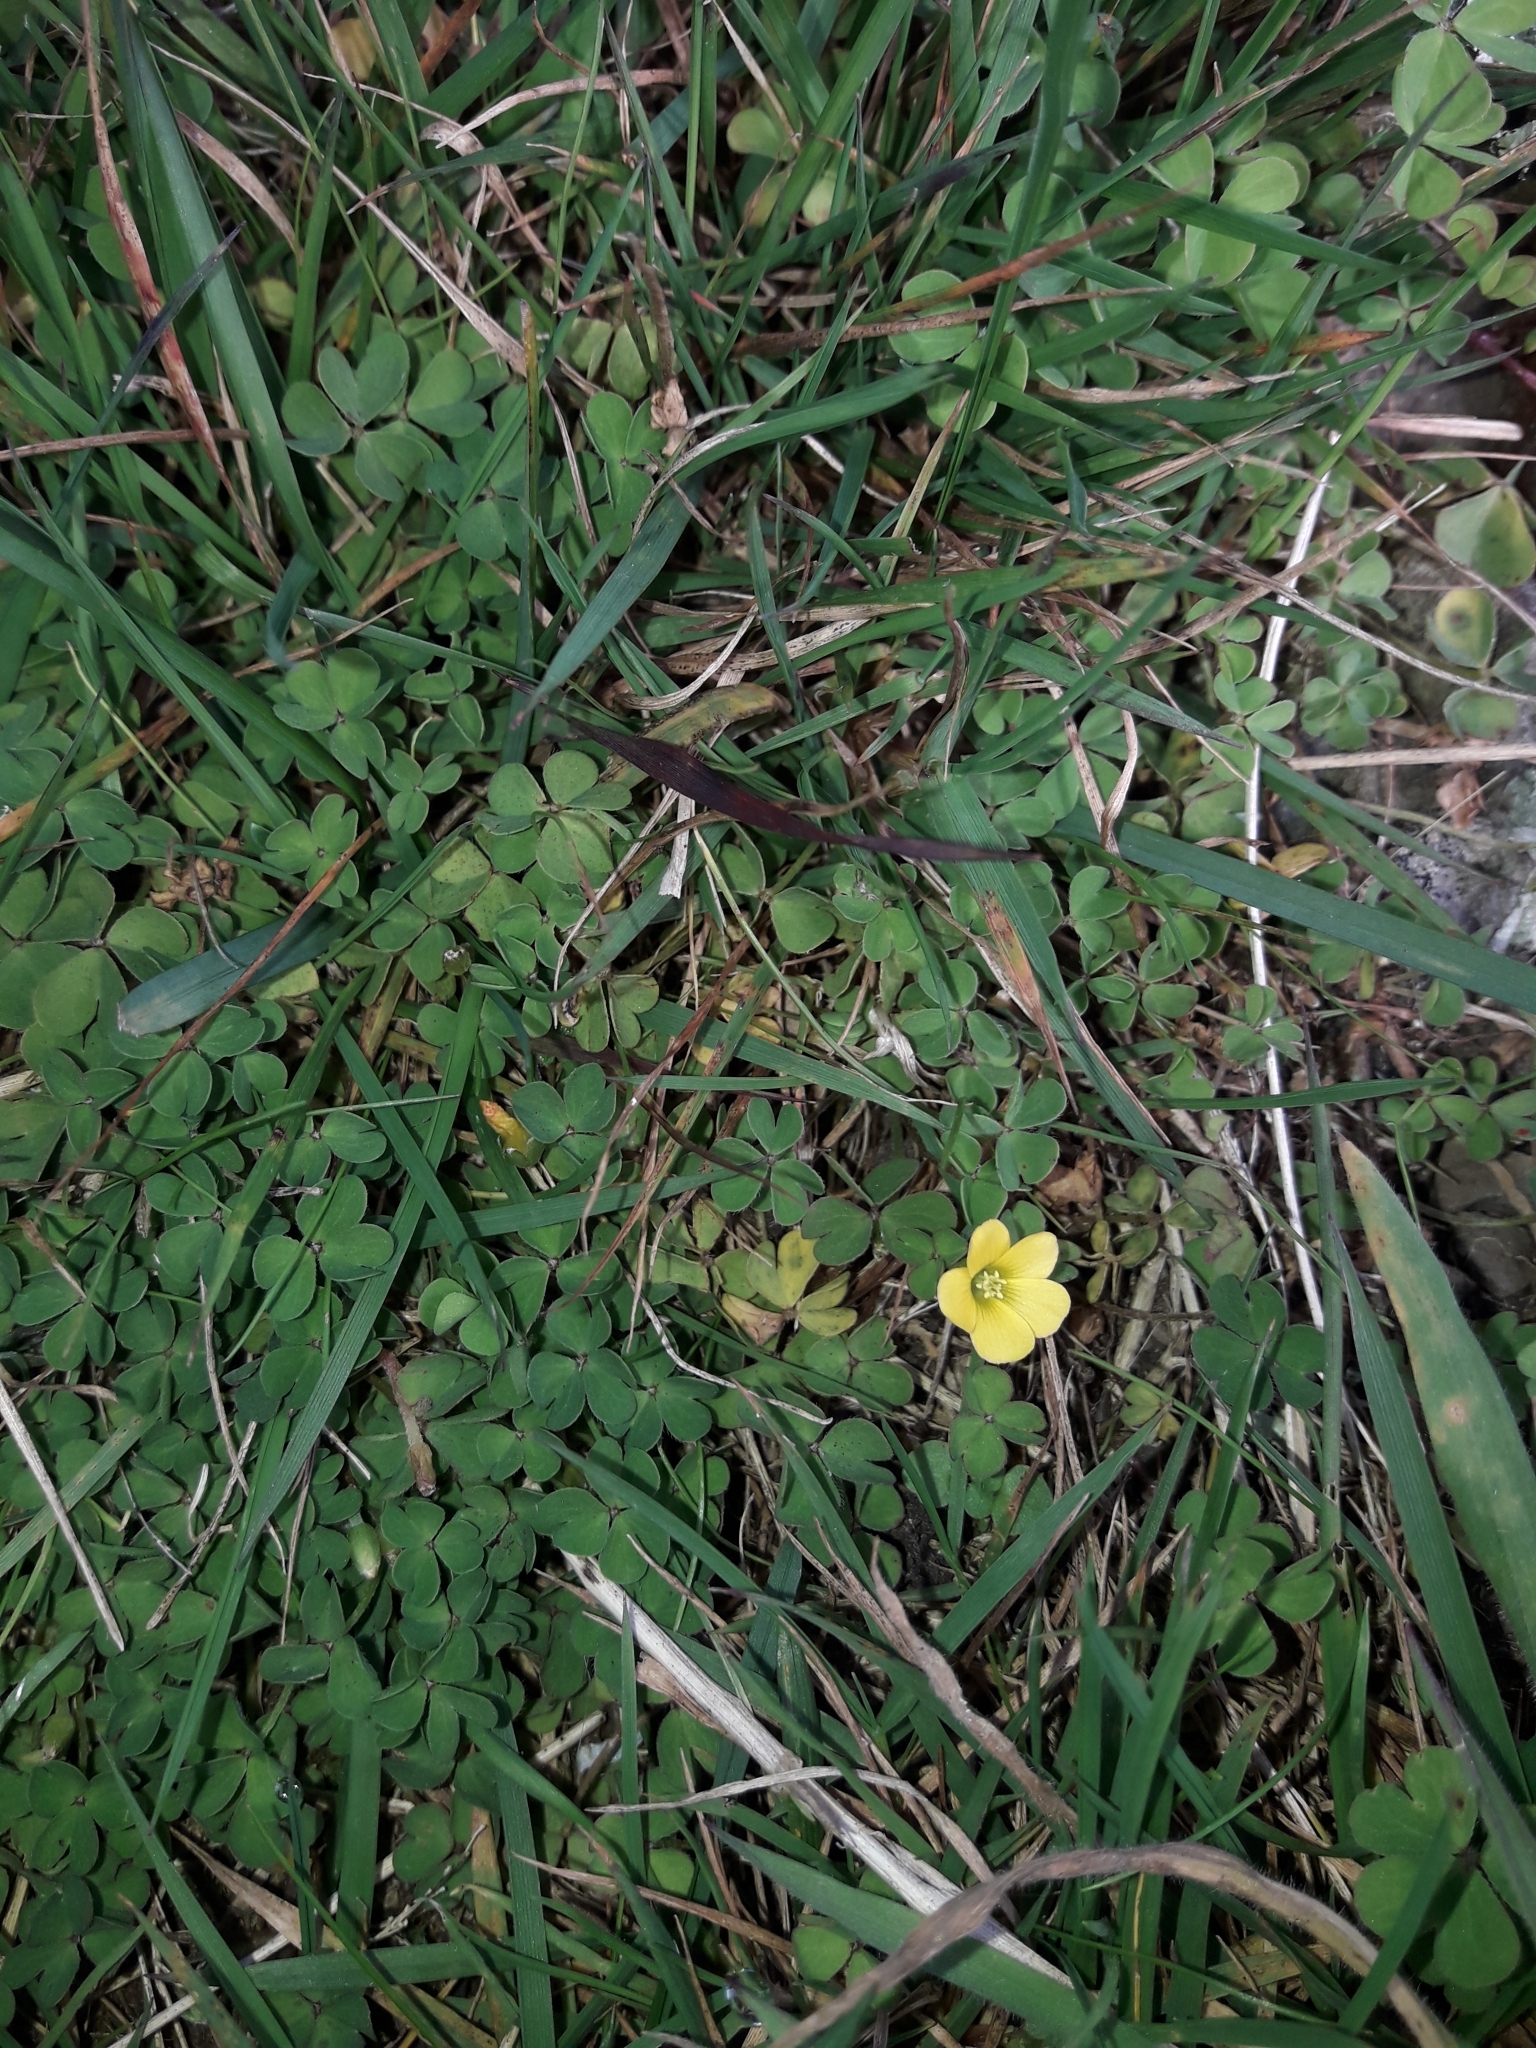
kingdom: Plantae
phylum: Tracheophyta
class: Magnoliopsida
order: Oxalidales
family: Oxalidaceae
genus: Oxalis
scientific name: Oxalis exilis
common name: Least yellow-sorrel
